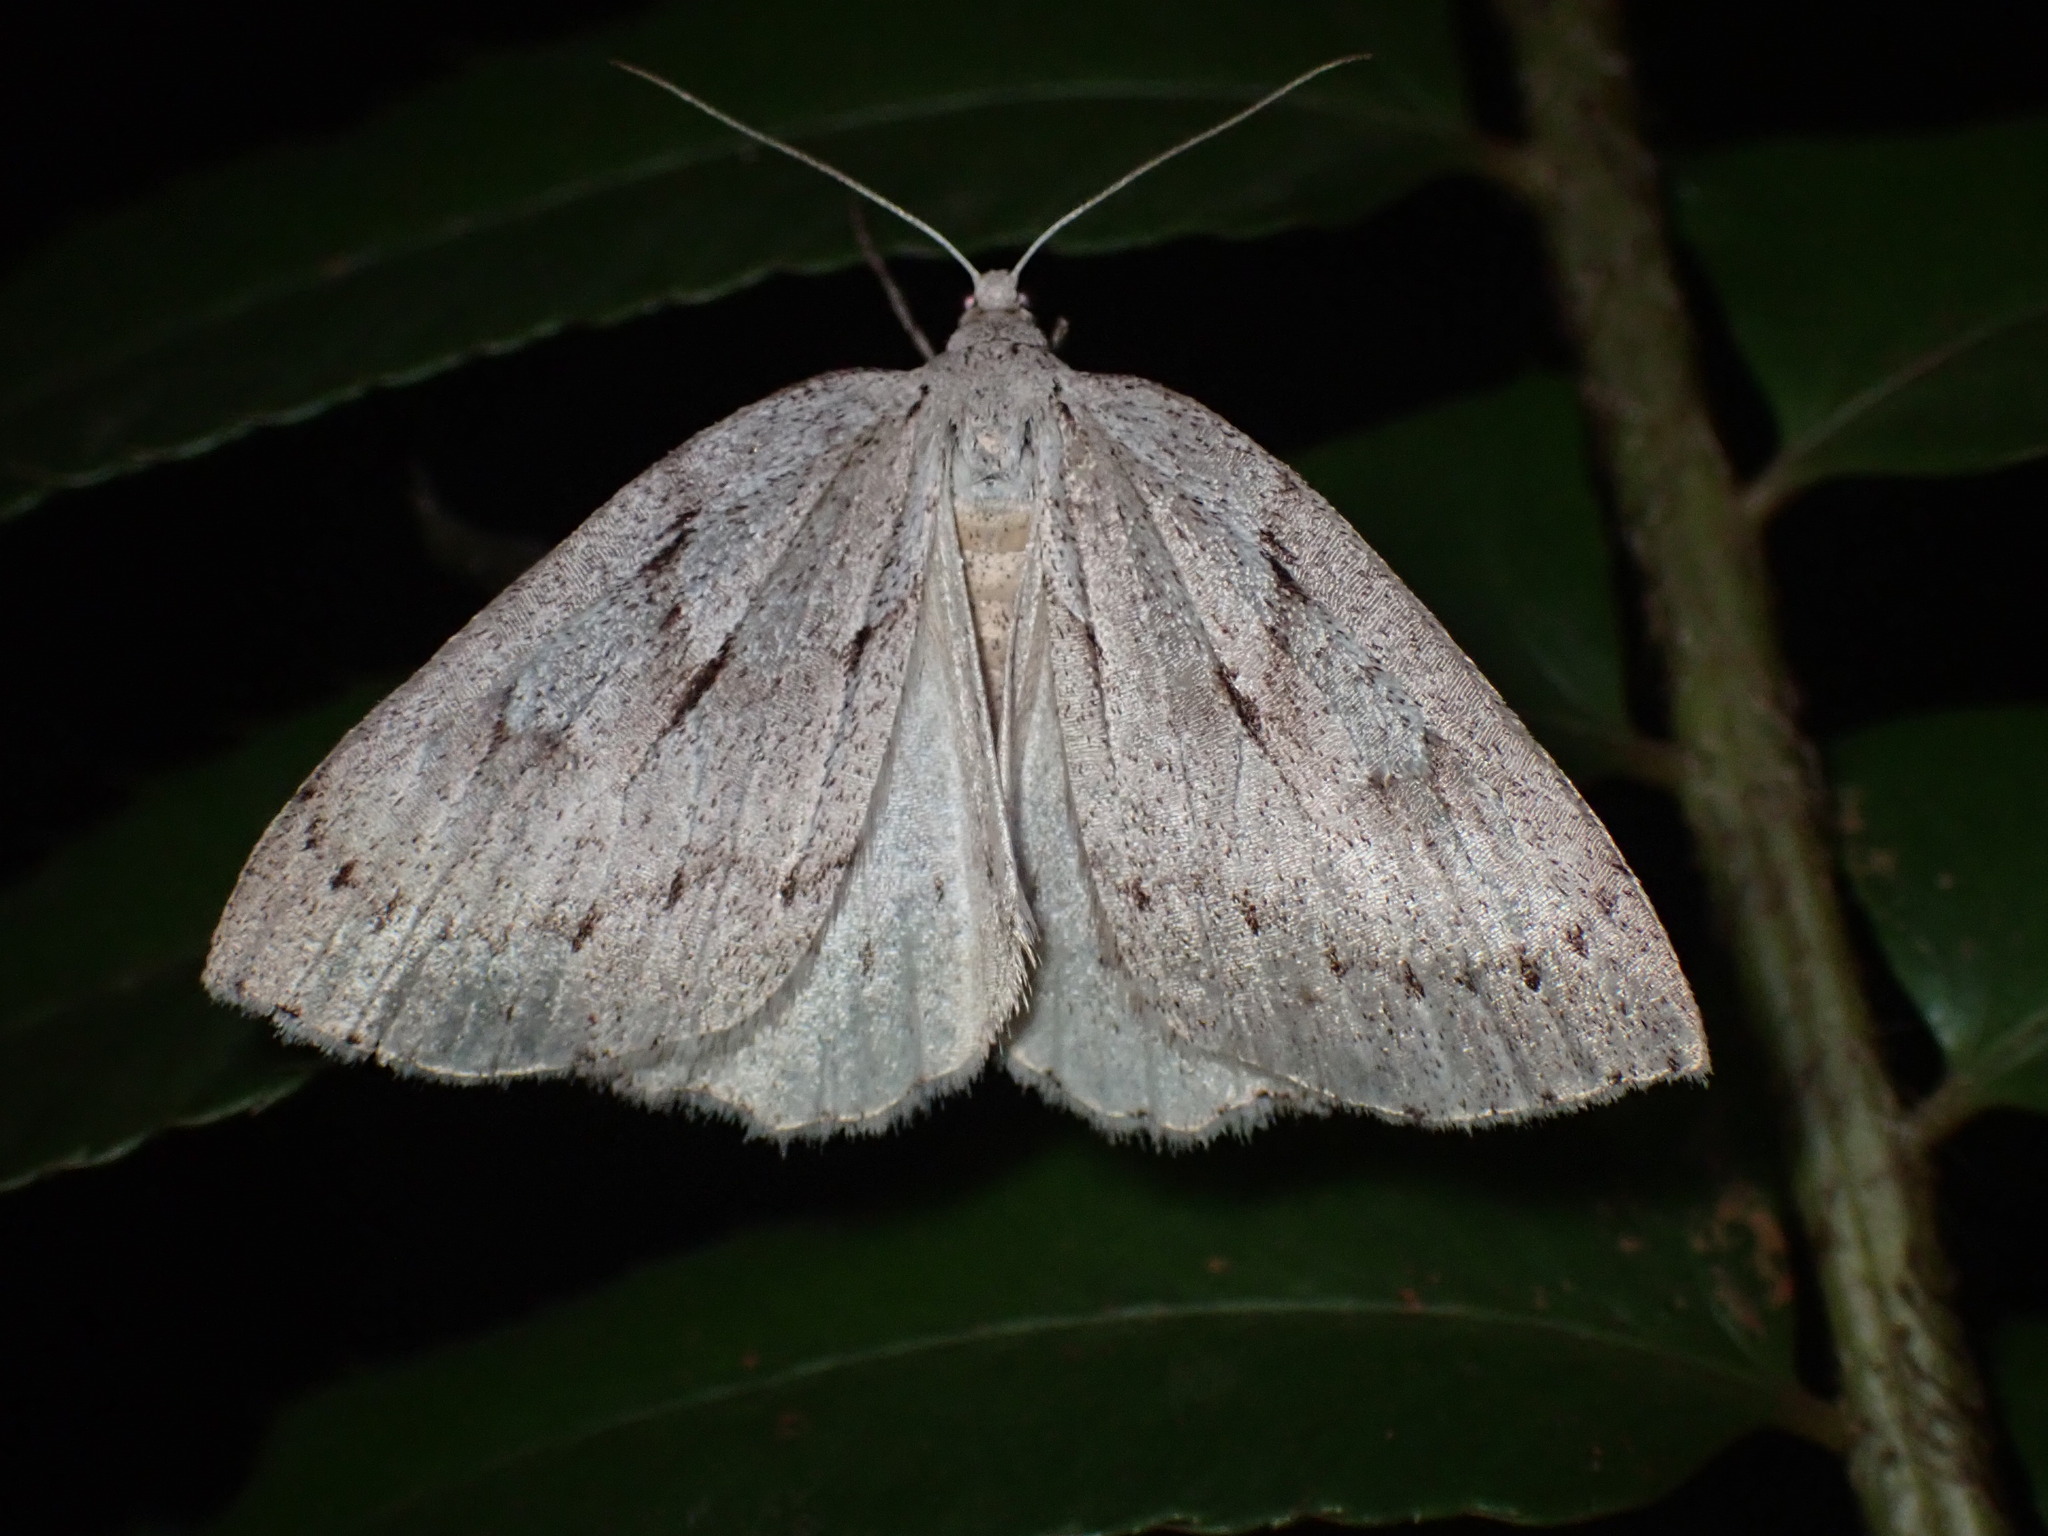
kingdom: Animalia
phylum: Arthropoda
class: Insecta
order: Lepidoptera
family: Geometridae
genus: Philedia
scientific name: Philedia punctomacularia
